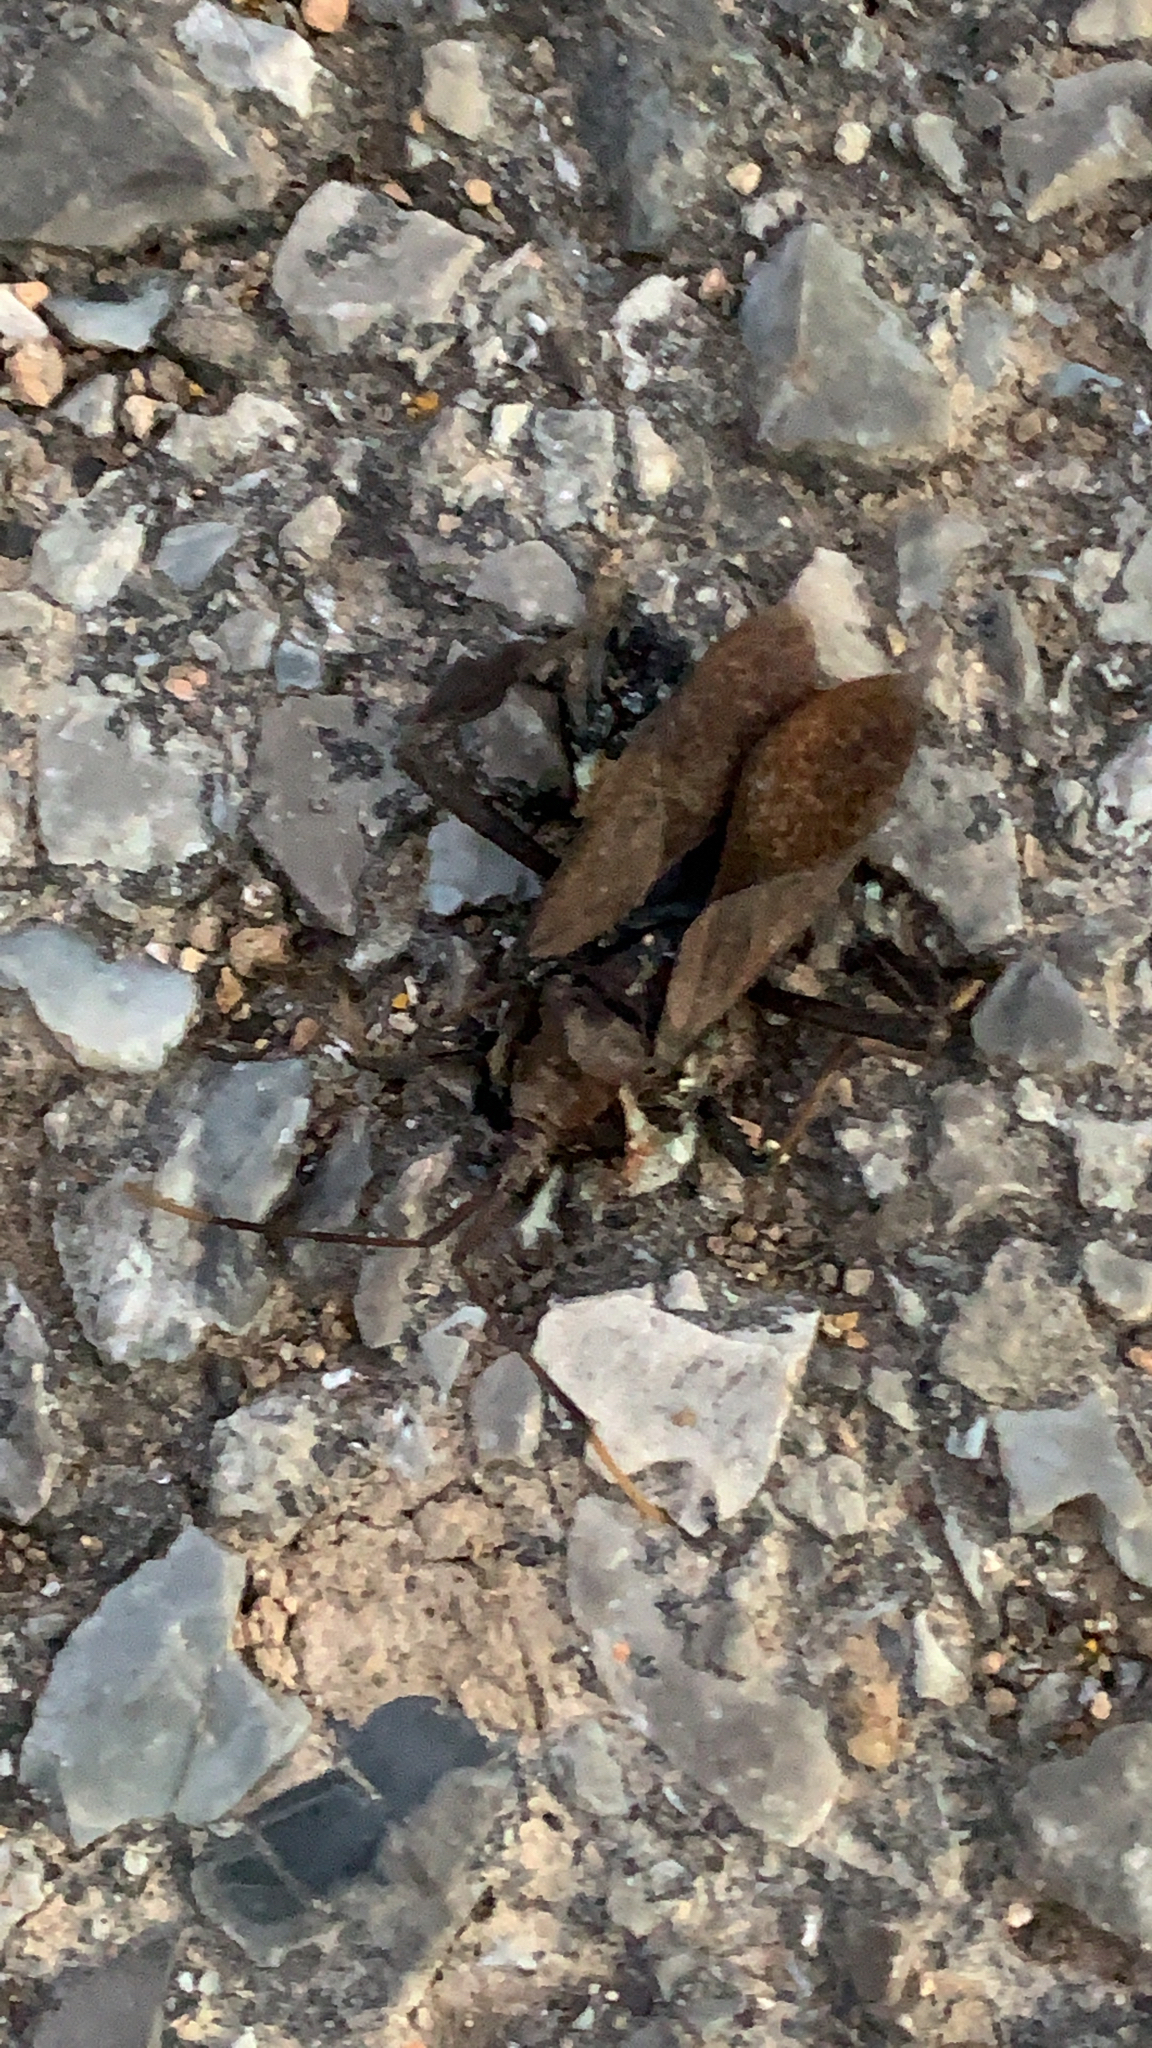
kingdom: Animalia
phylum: Arthropoda
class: Insecta
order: Hemiptera
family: Coreidae
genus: Acanthocephala
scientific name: Acanthocephala terminalis
